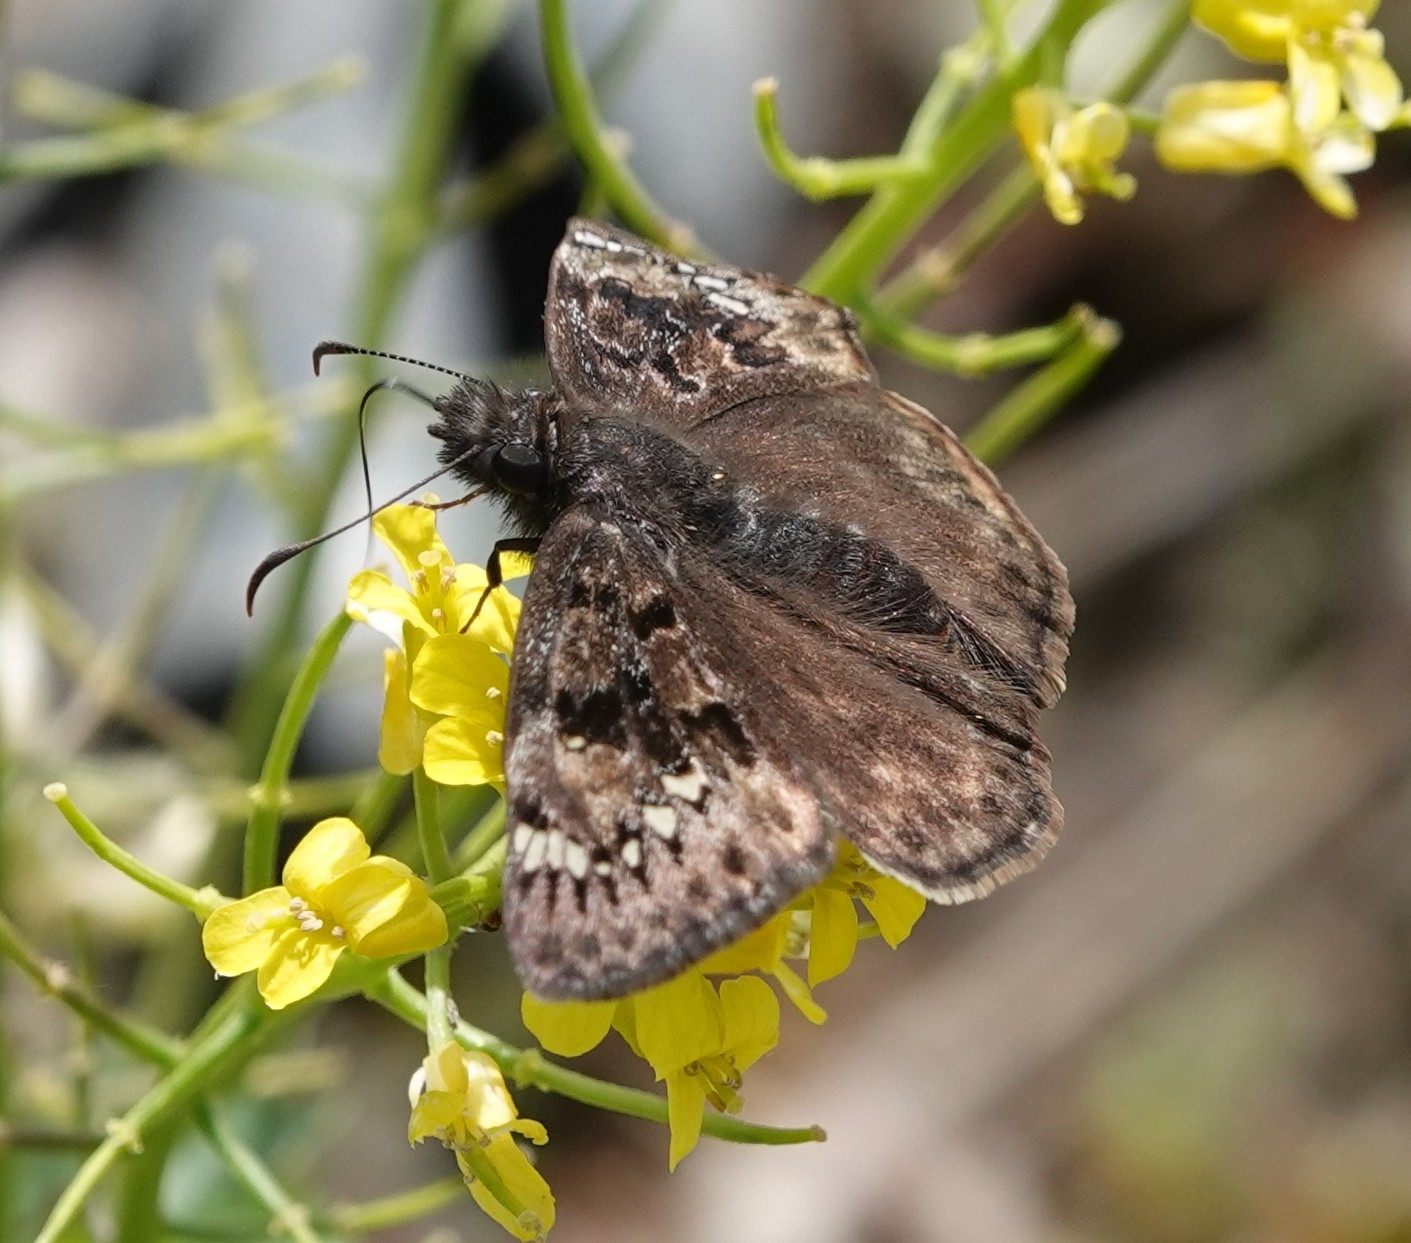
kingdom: Animalia
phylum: Arthropoda
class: Insecta
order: Lepidoptera
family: Hesperiidae
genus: Erynnis
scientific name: Erynnis juvenalis
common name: Juvenal's duskywing
